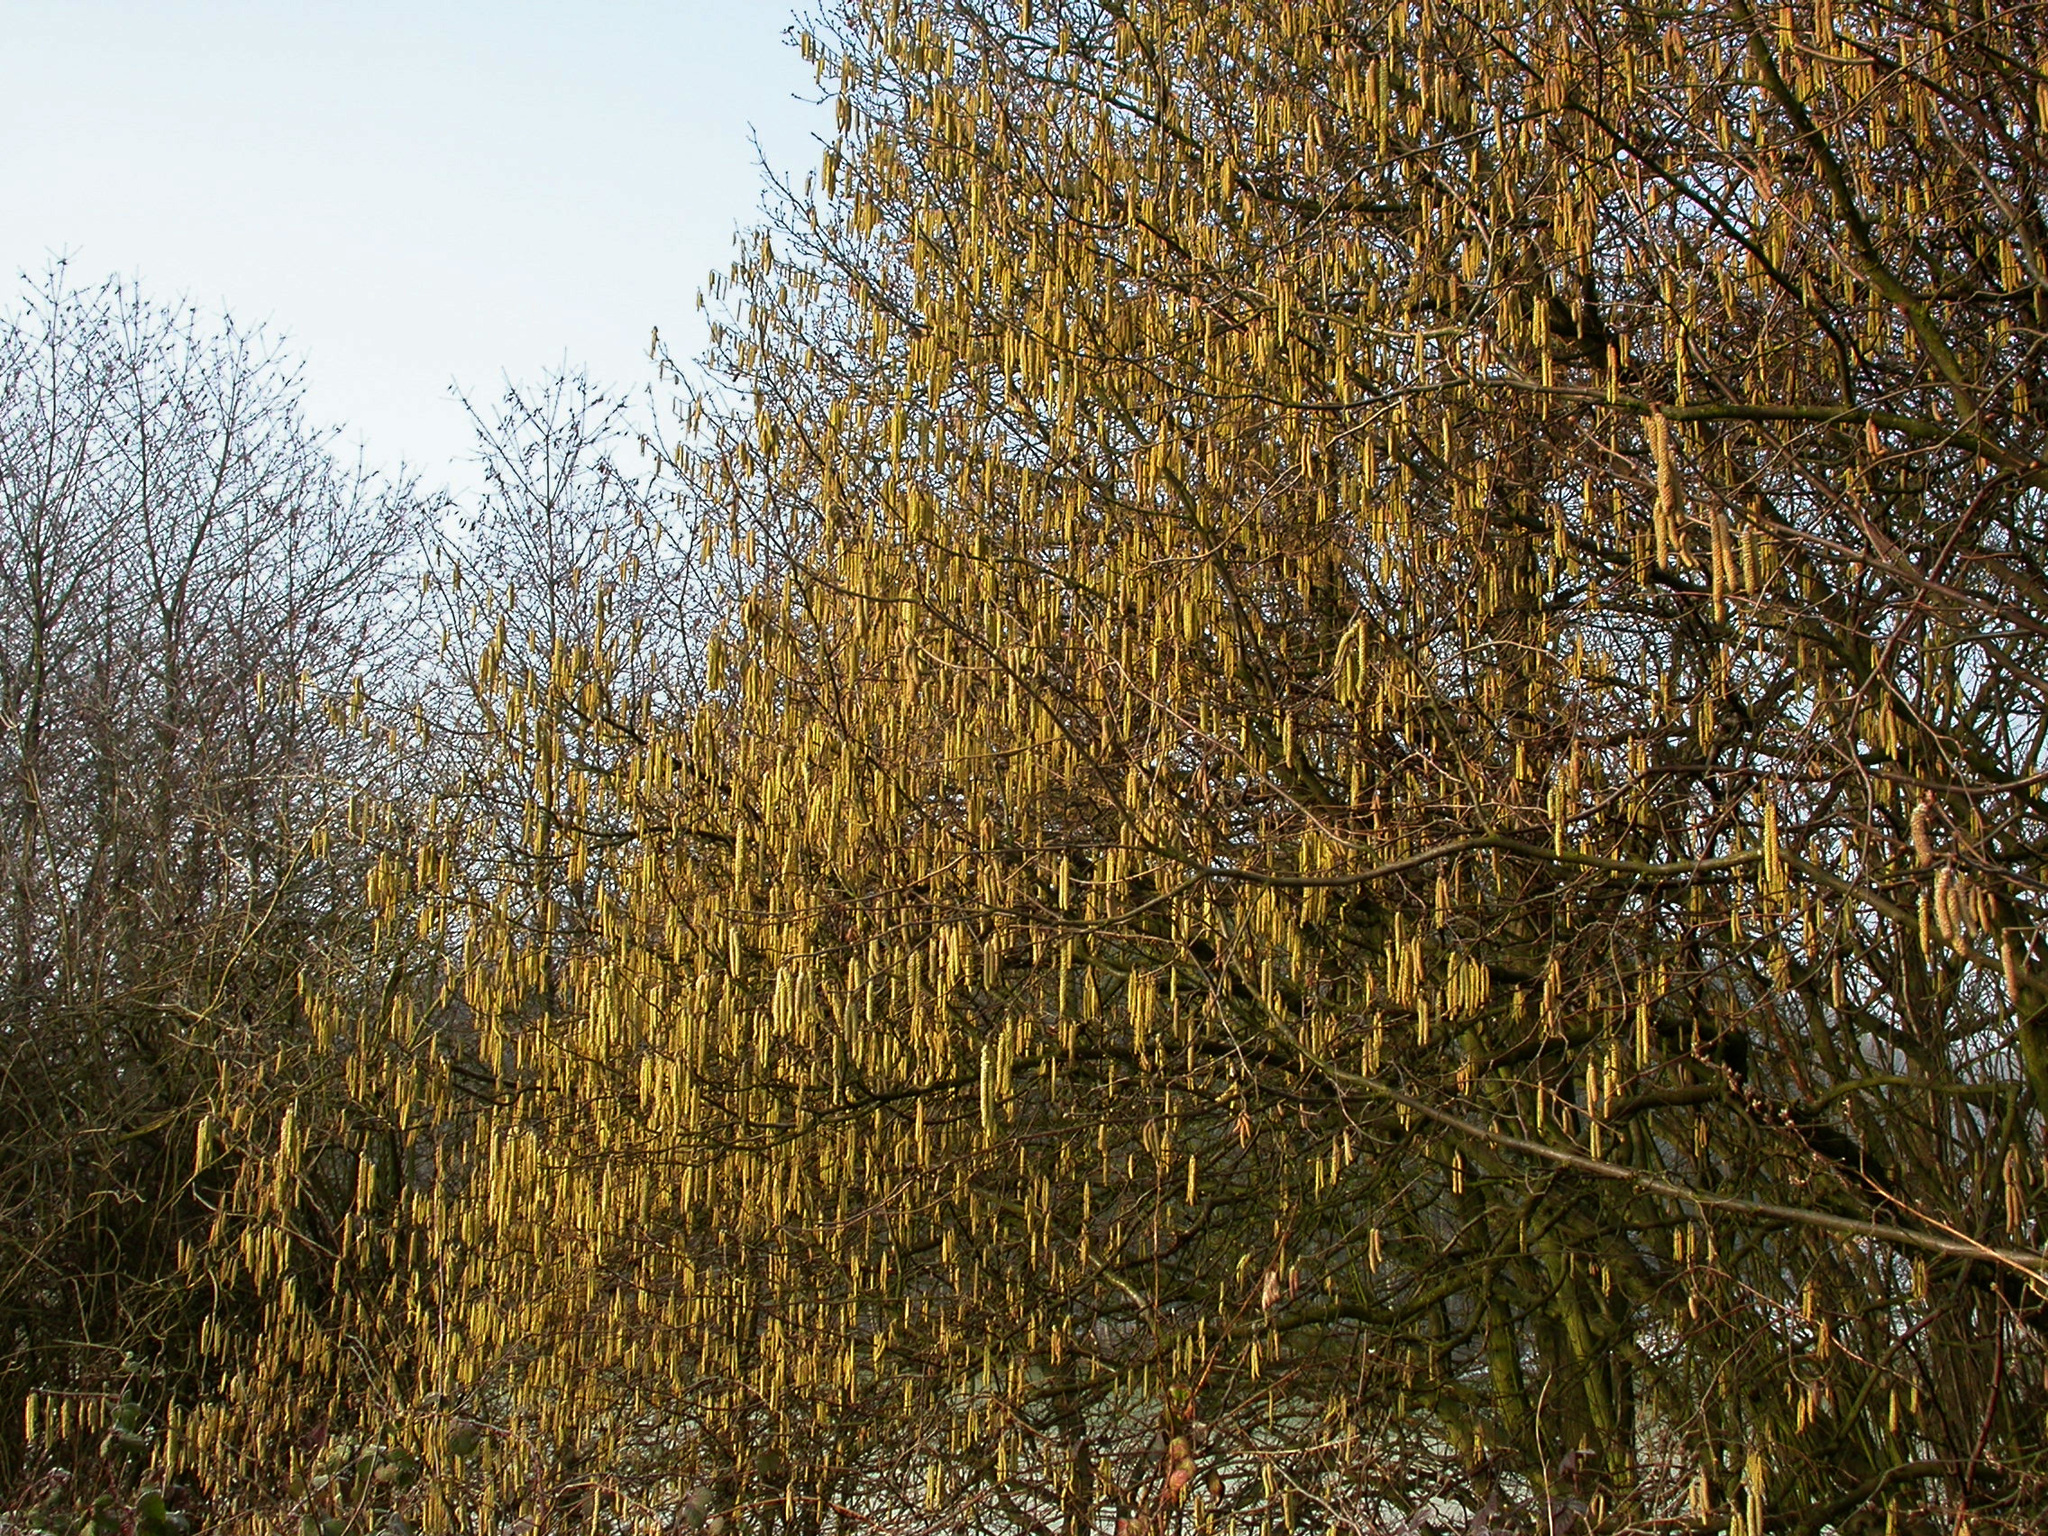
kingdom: Plantae
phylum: Tracheophyta
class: Magnoliopsida
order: Fagales
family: Betulaceae
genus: Corylus
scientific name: Corylus avellana
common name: European hazel
